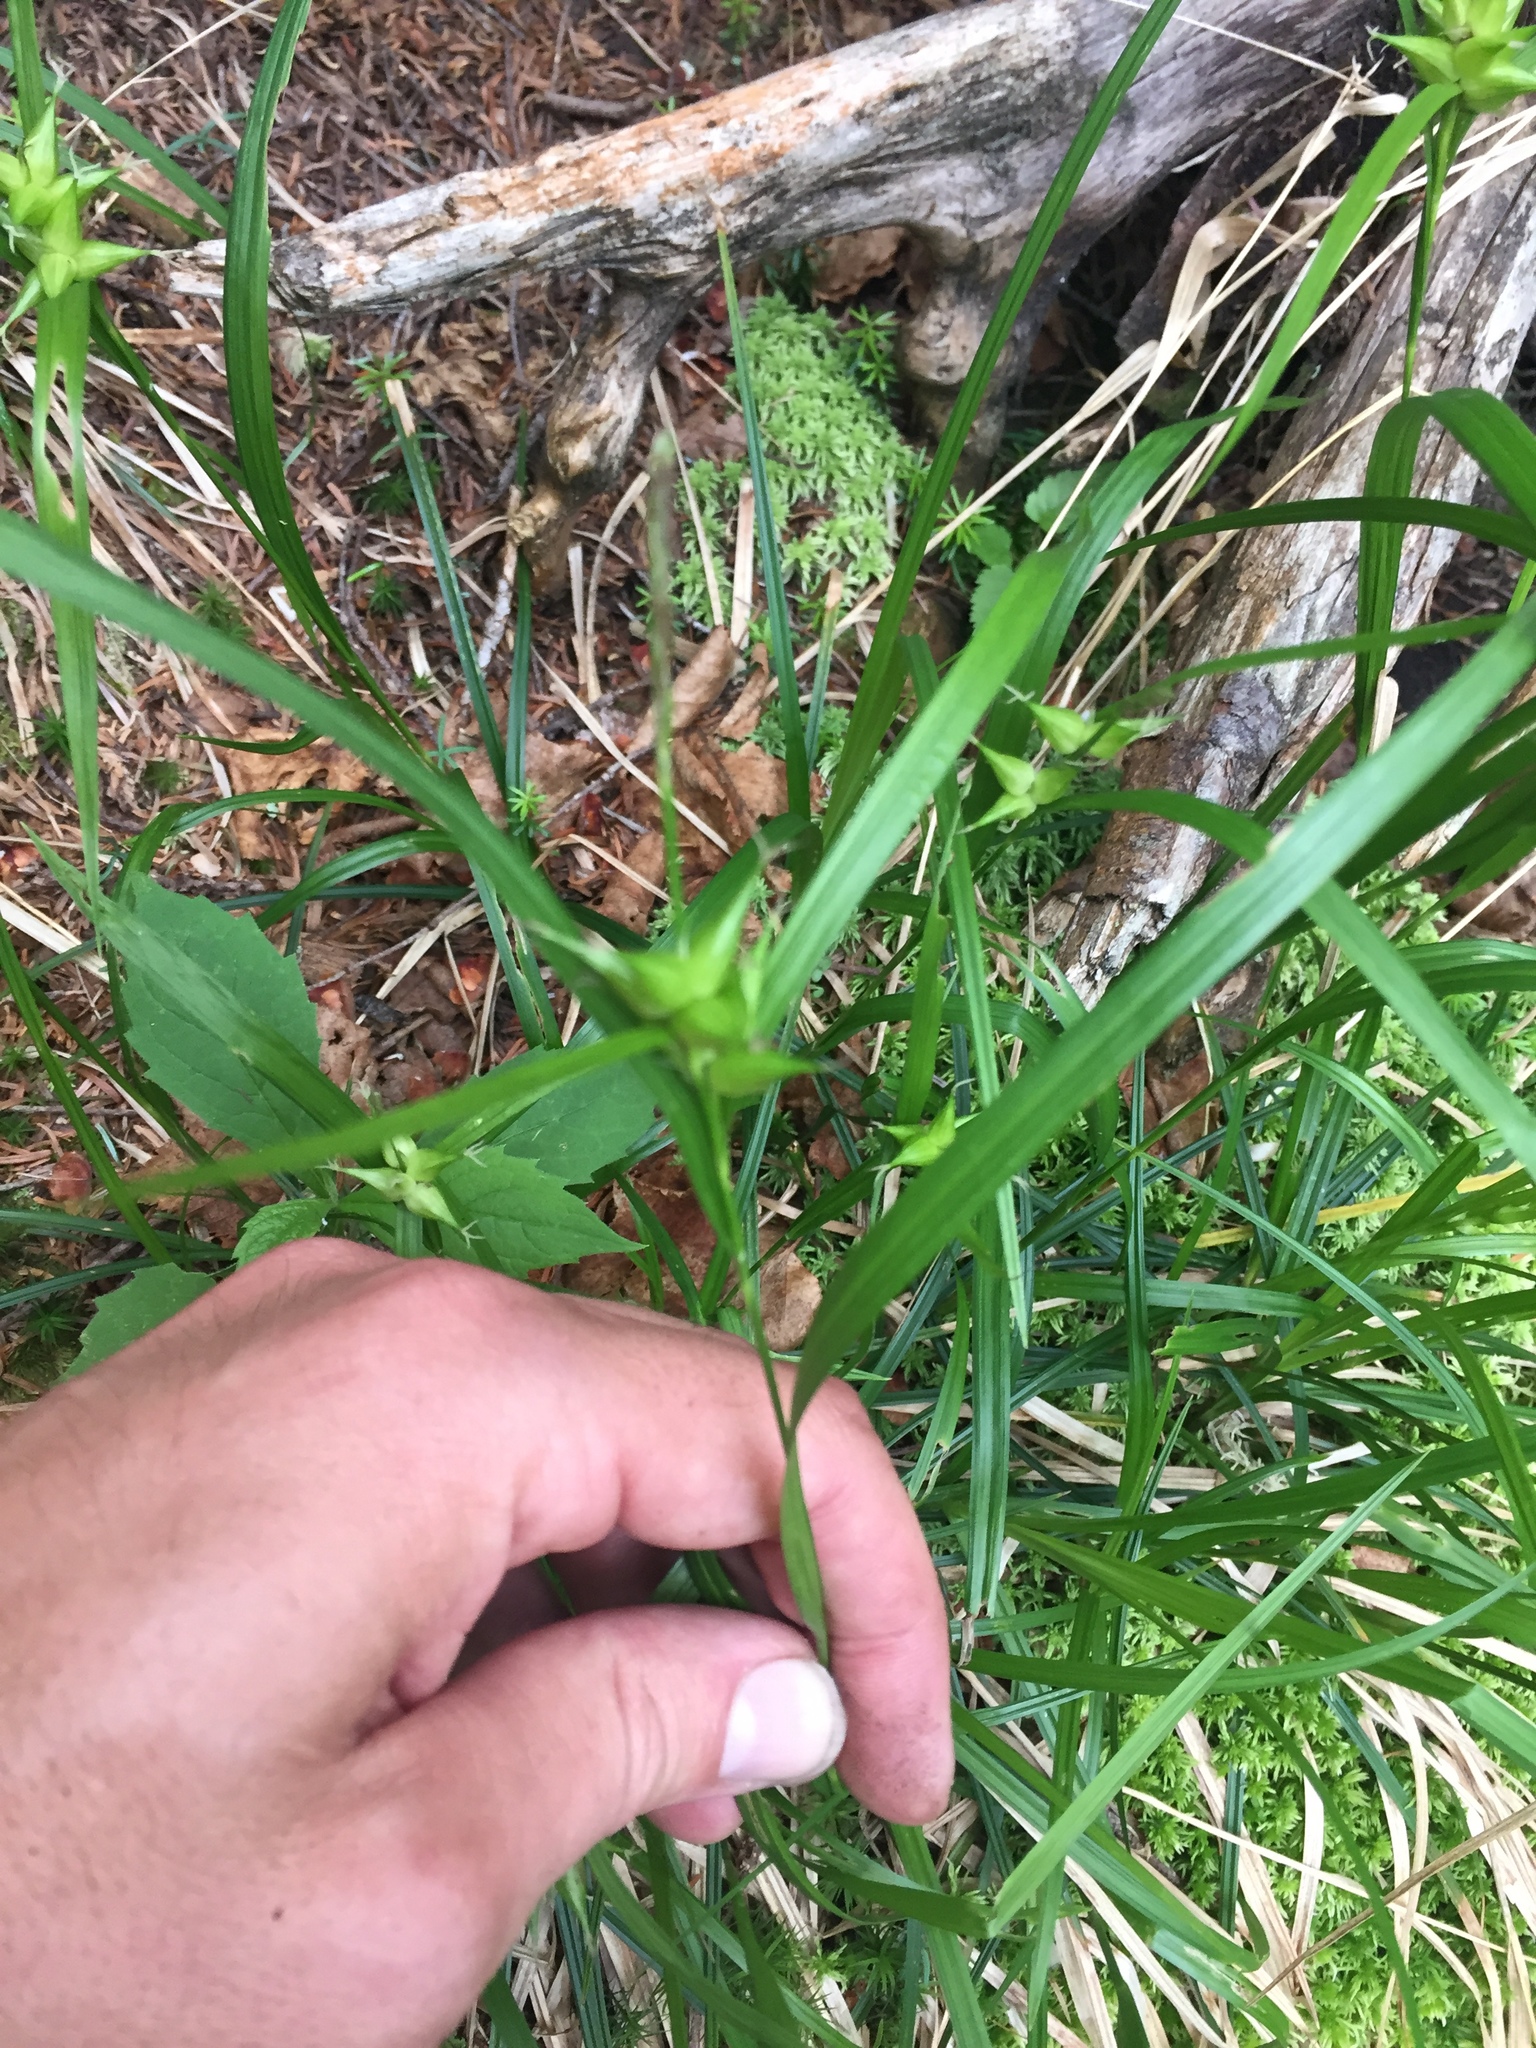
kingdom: Plantae
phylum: Tracheophyta
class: Liliopsida
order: Poales
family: Cyperaceae
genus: Carex
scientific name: Carex intumescens
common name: Greater bladder sedge
